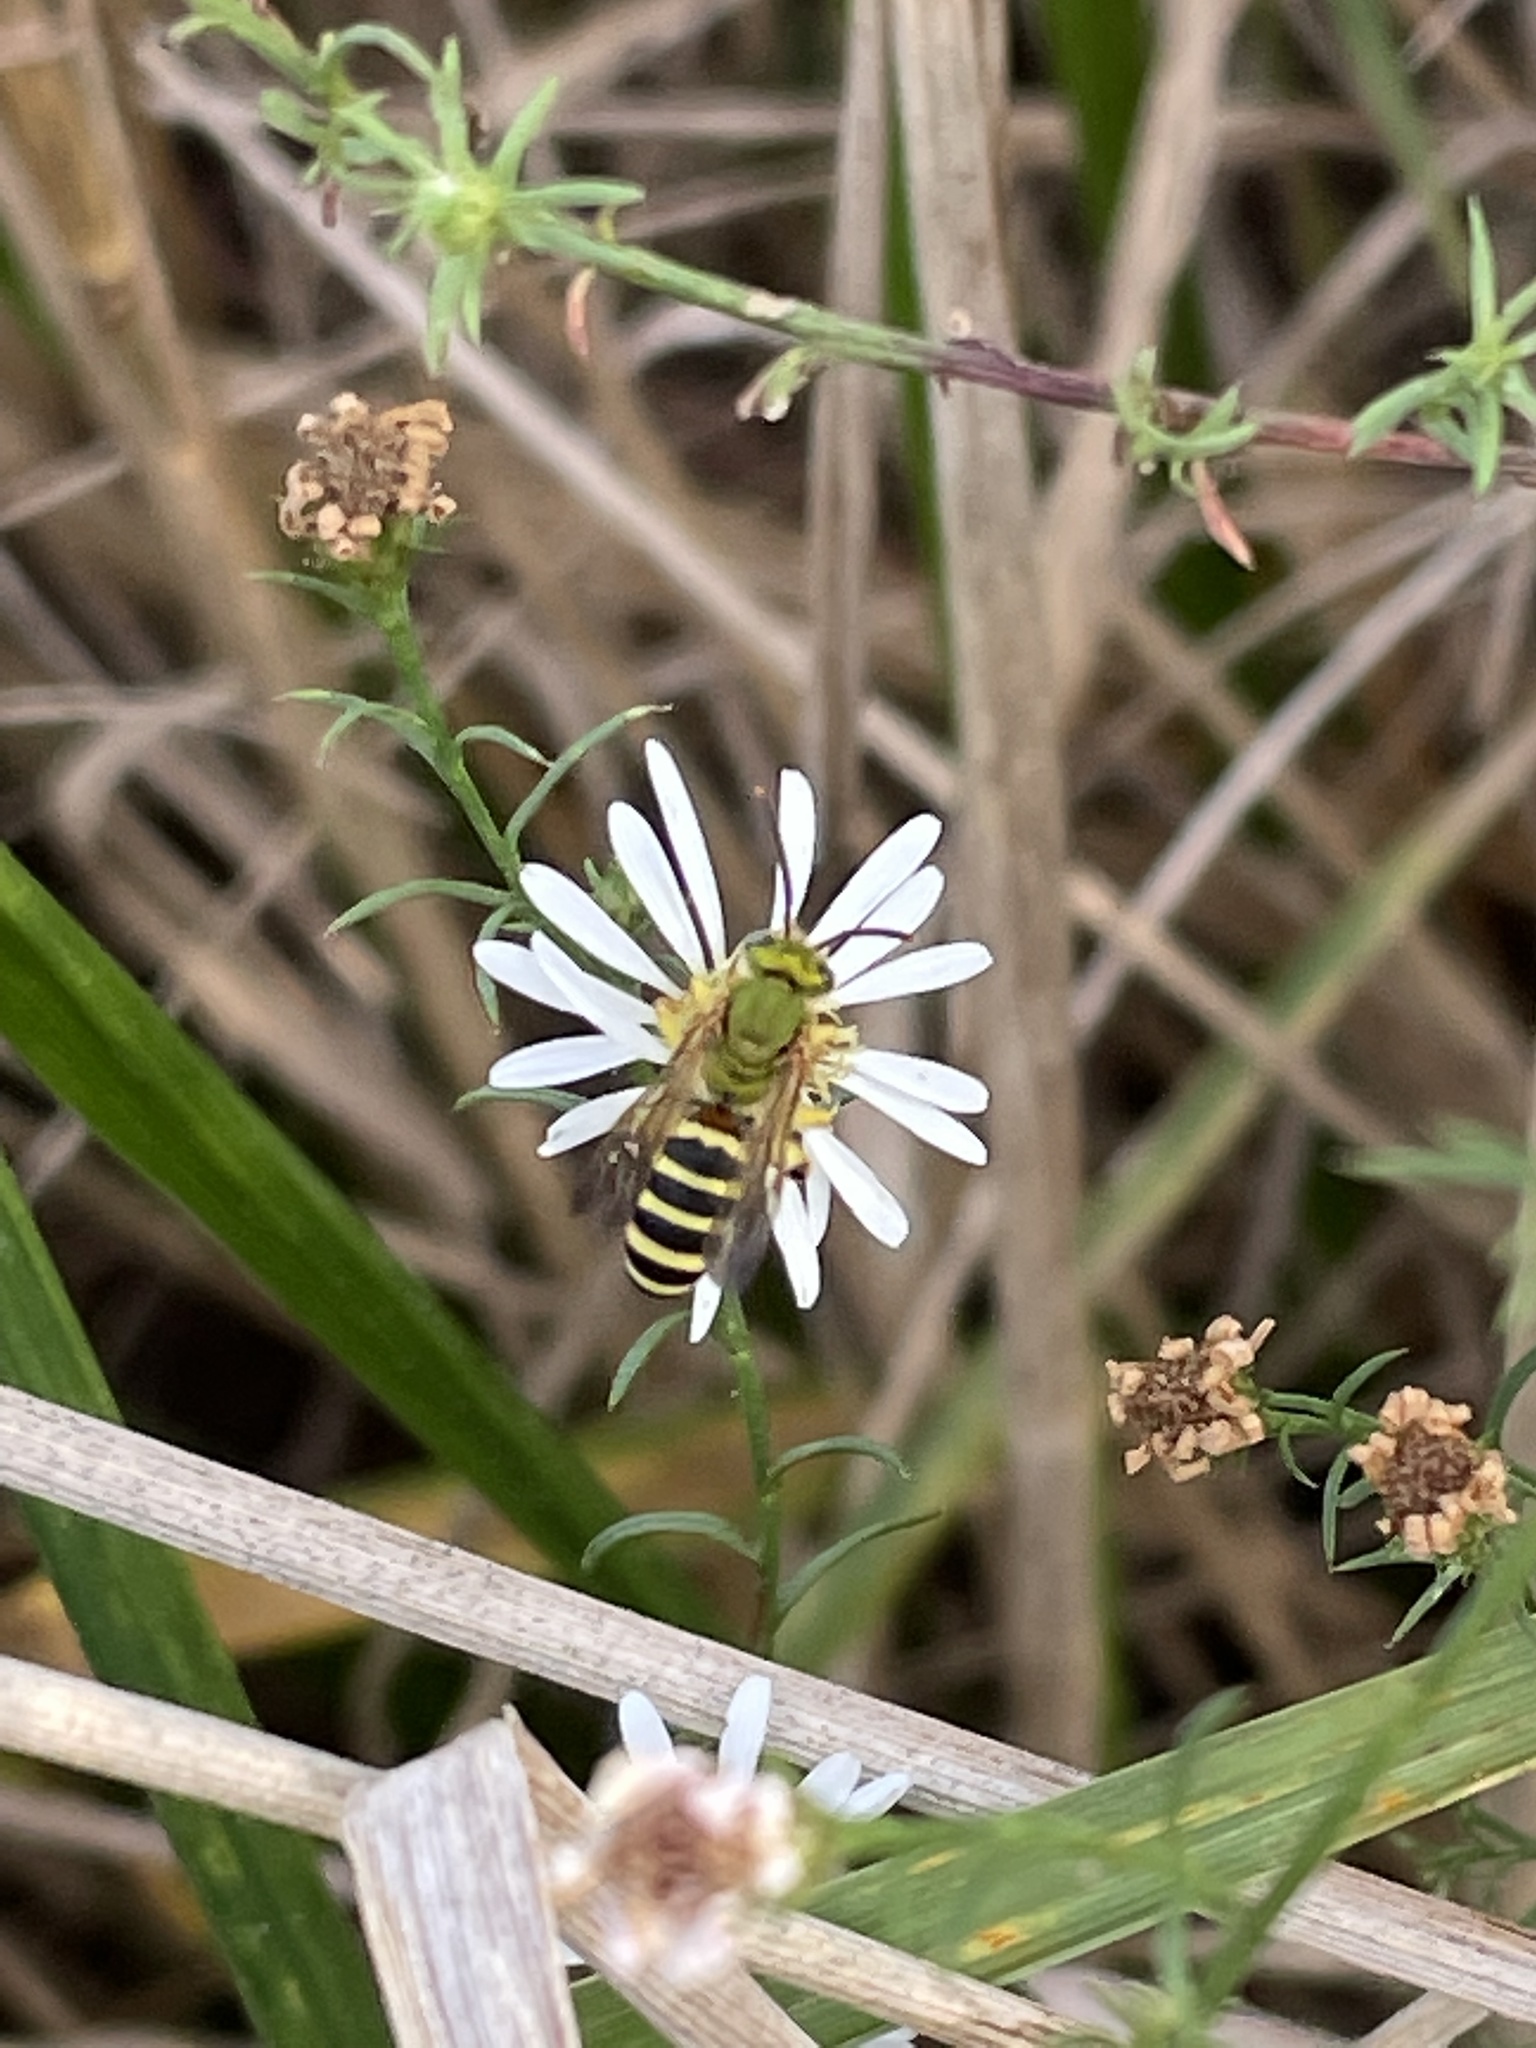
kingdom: Animalia
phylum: Arthropoda
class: Insecta
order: Hymenoptera
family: Halictidae
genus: Agapostemon
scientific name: Agapostemon splendens
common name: Brown-winged striped sweat bee
